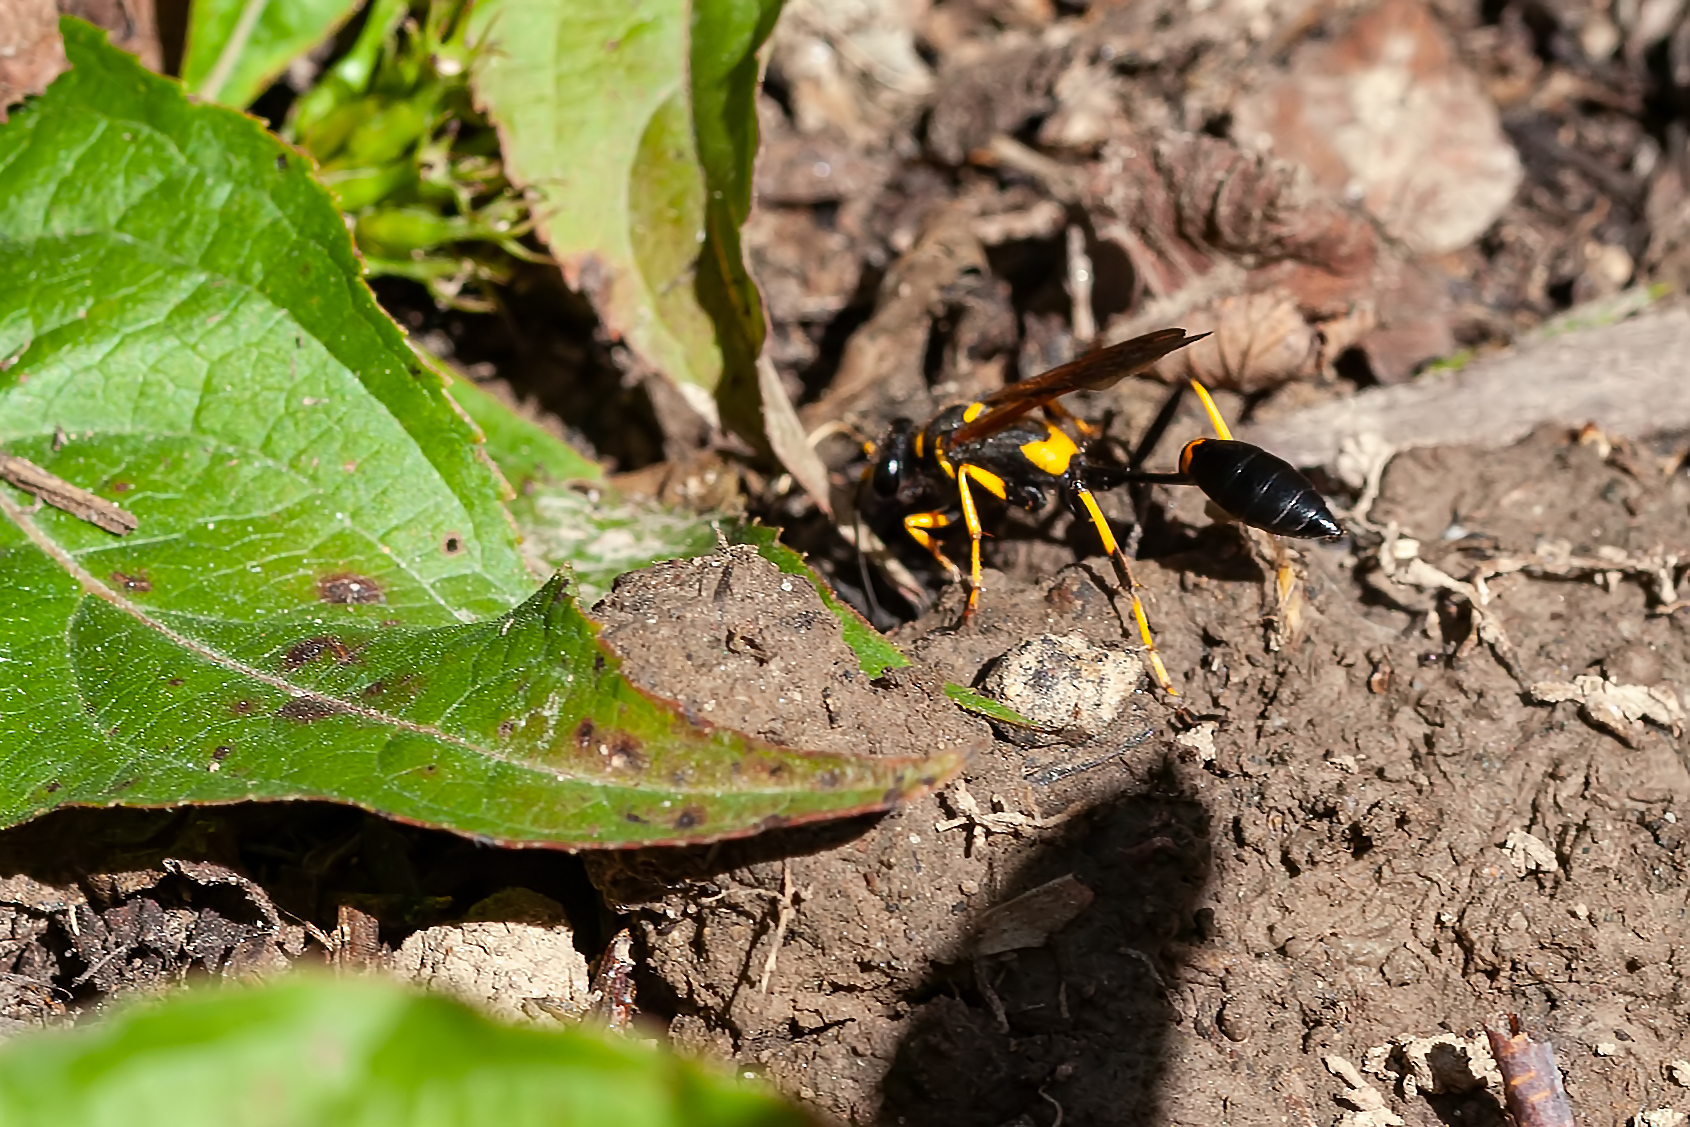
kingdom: Animalia
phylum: Arthropoda
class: Insecta
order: Hymenoptera
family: Sphecidae
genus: Sceliphron
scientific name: Sceliphron caementarium
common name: Mud dauber
